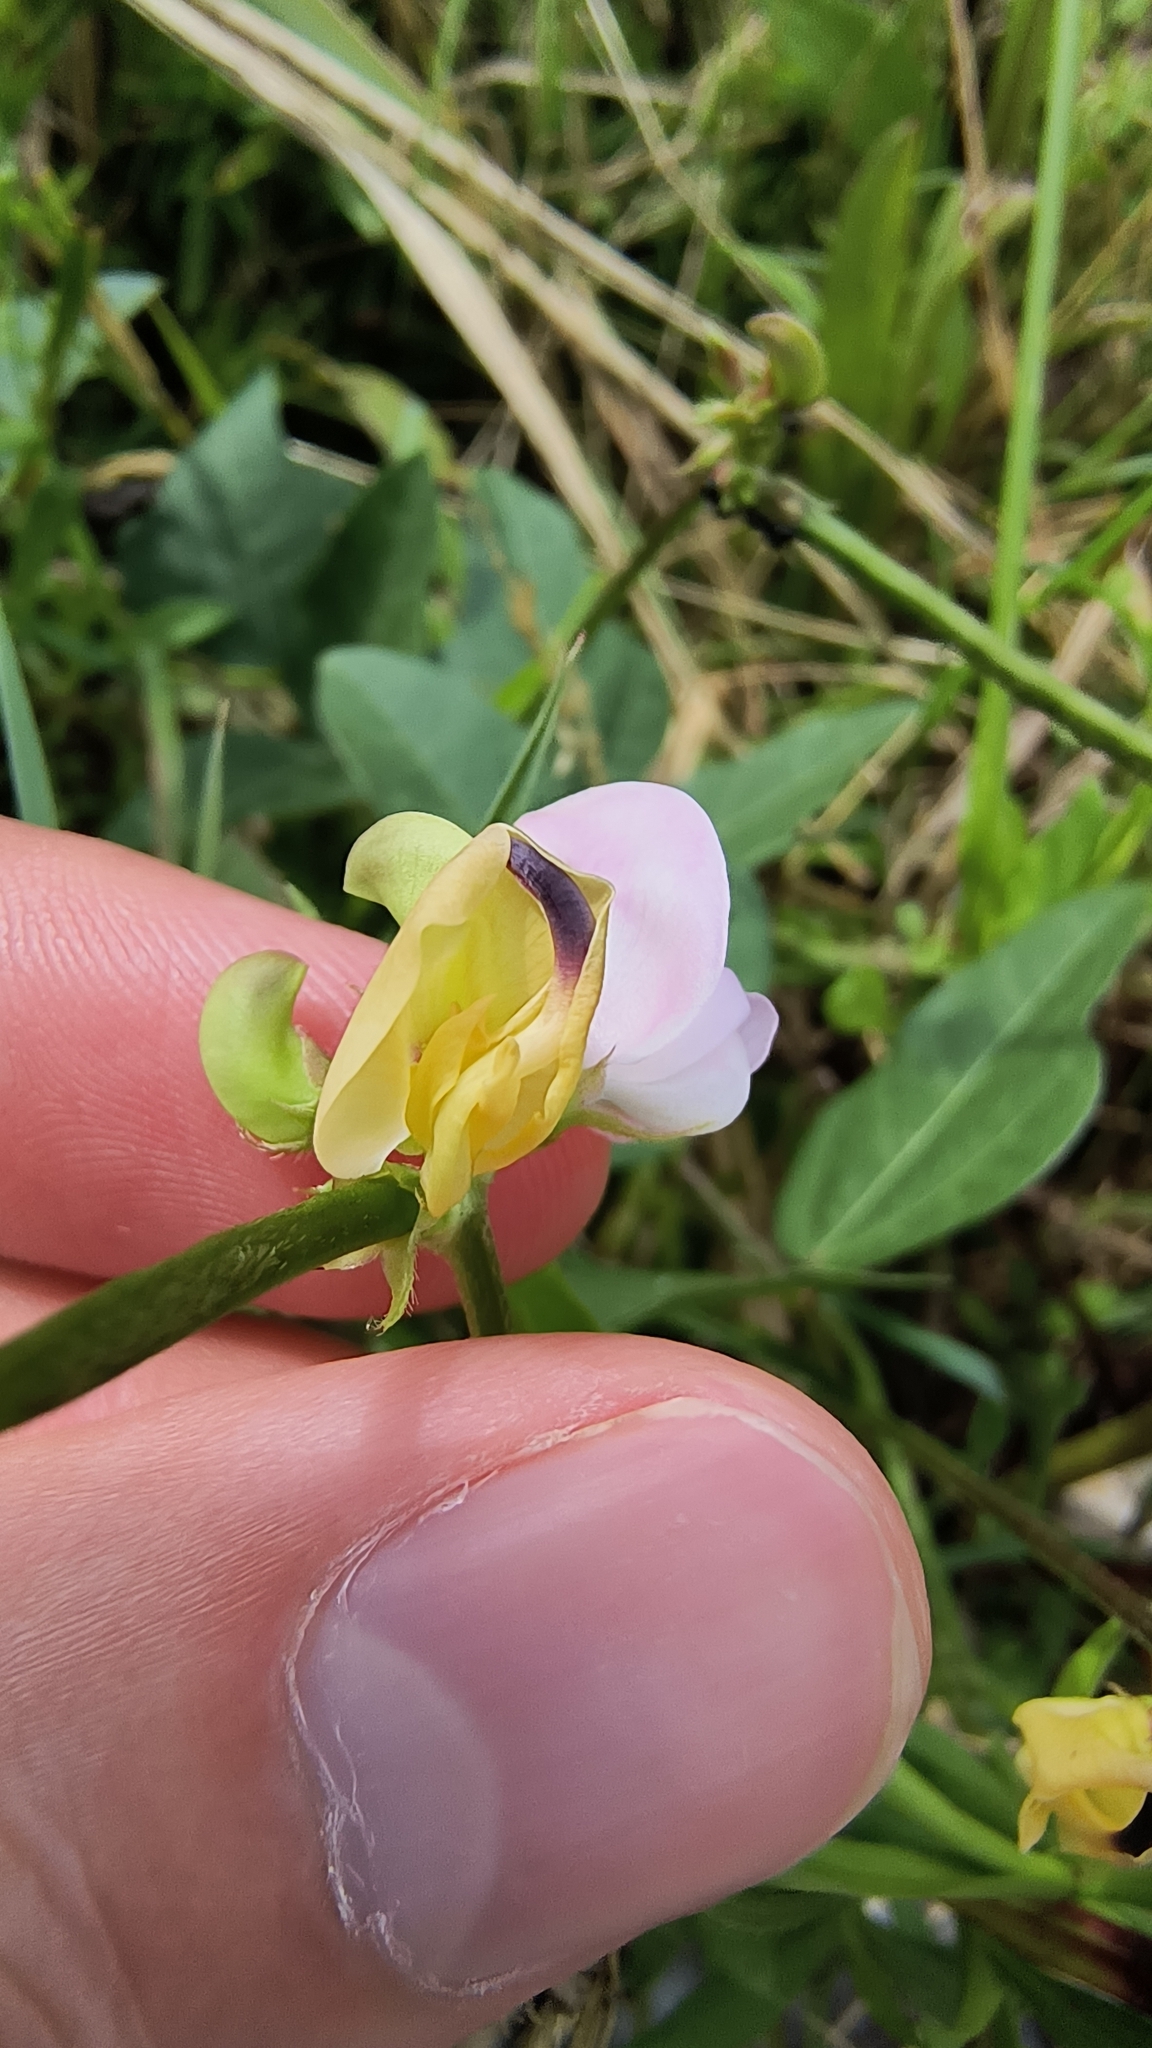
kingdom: Plantae
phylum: Tracheophyta
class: Magnoliopsida
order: Fabales
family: Fabaceae
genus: Strophostyles
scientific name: Strophostyles helvola
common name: Trailing wild bean
